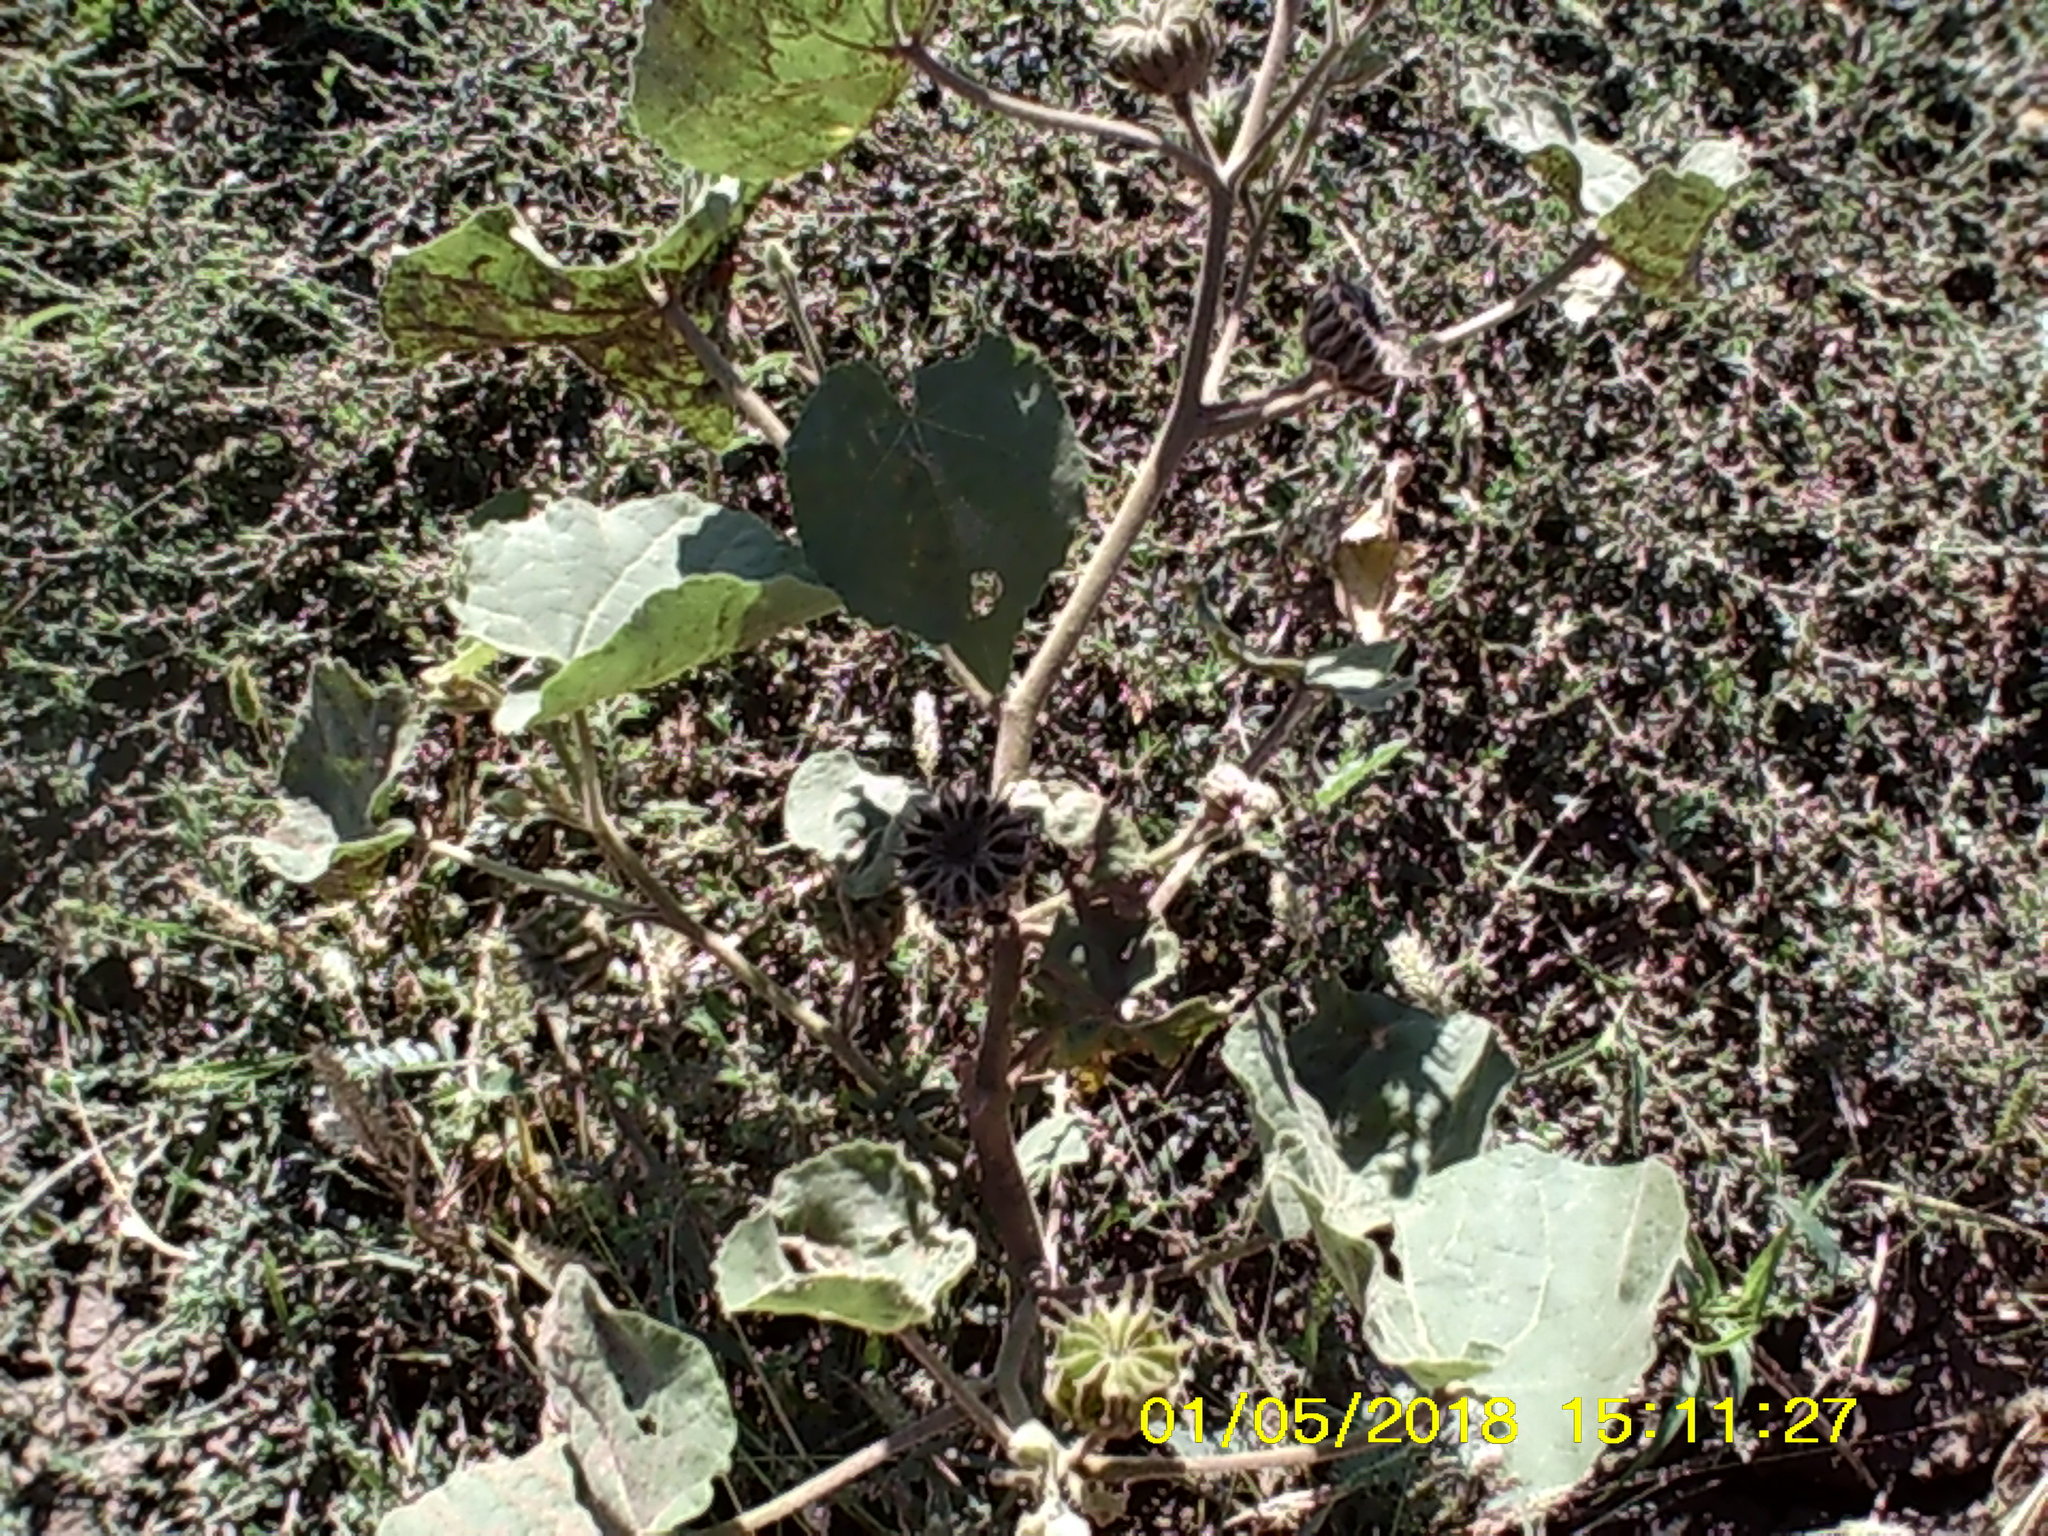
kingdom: Plantae
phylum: Tracheophyta
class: Magnoliopsida
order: Malvales
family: Malvaceae
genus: Abutilon
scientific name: Abutilon theophrasti
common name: Velvetleaf
